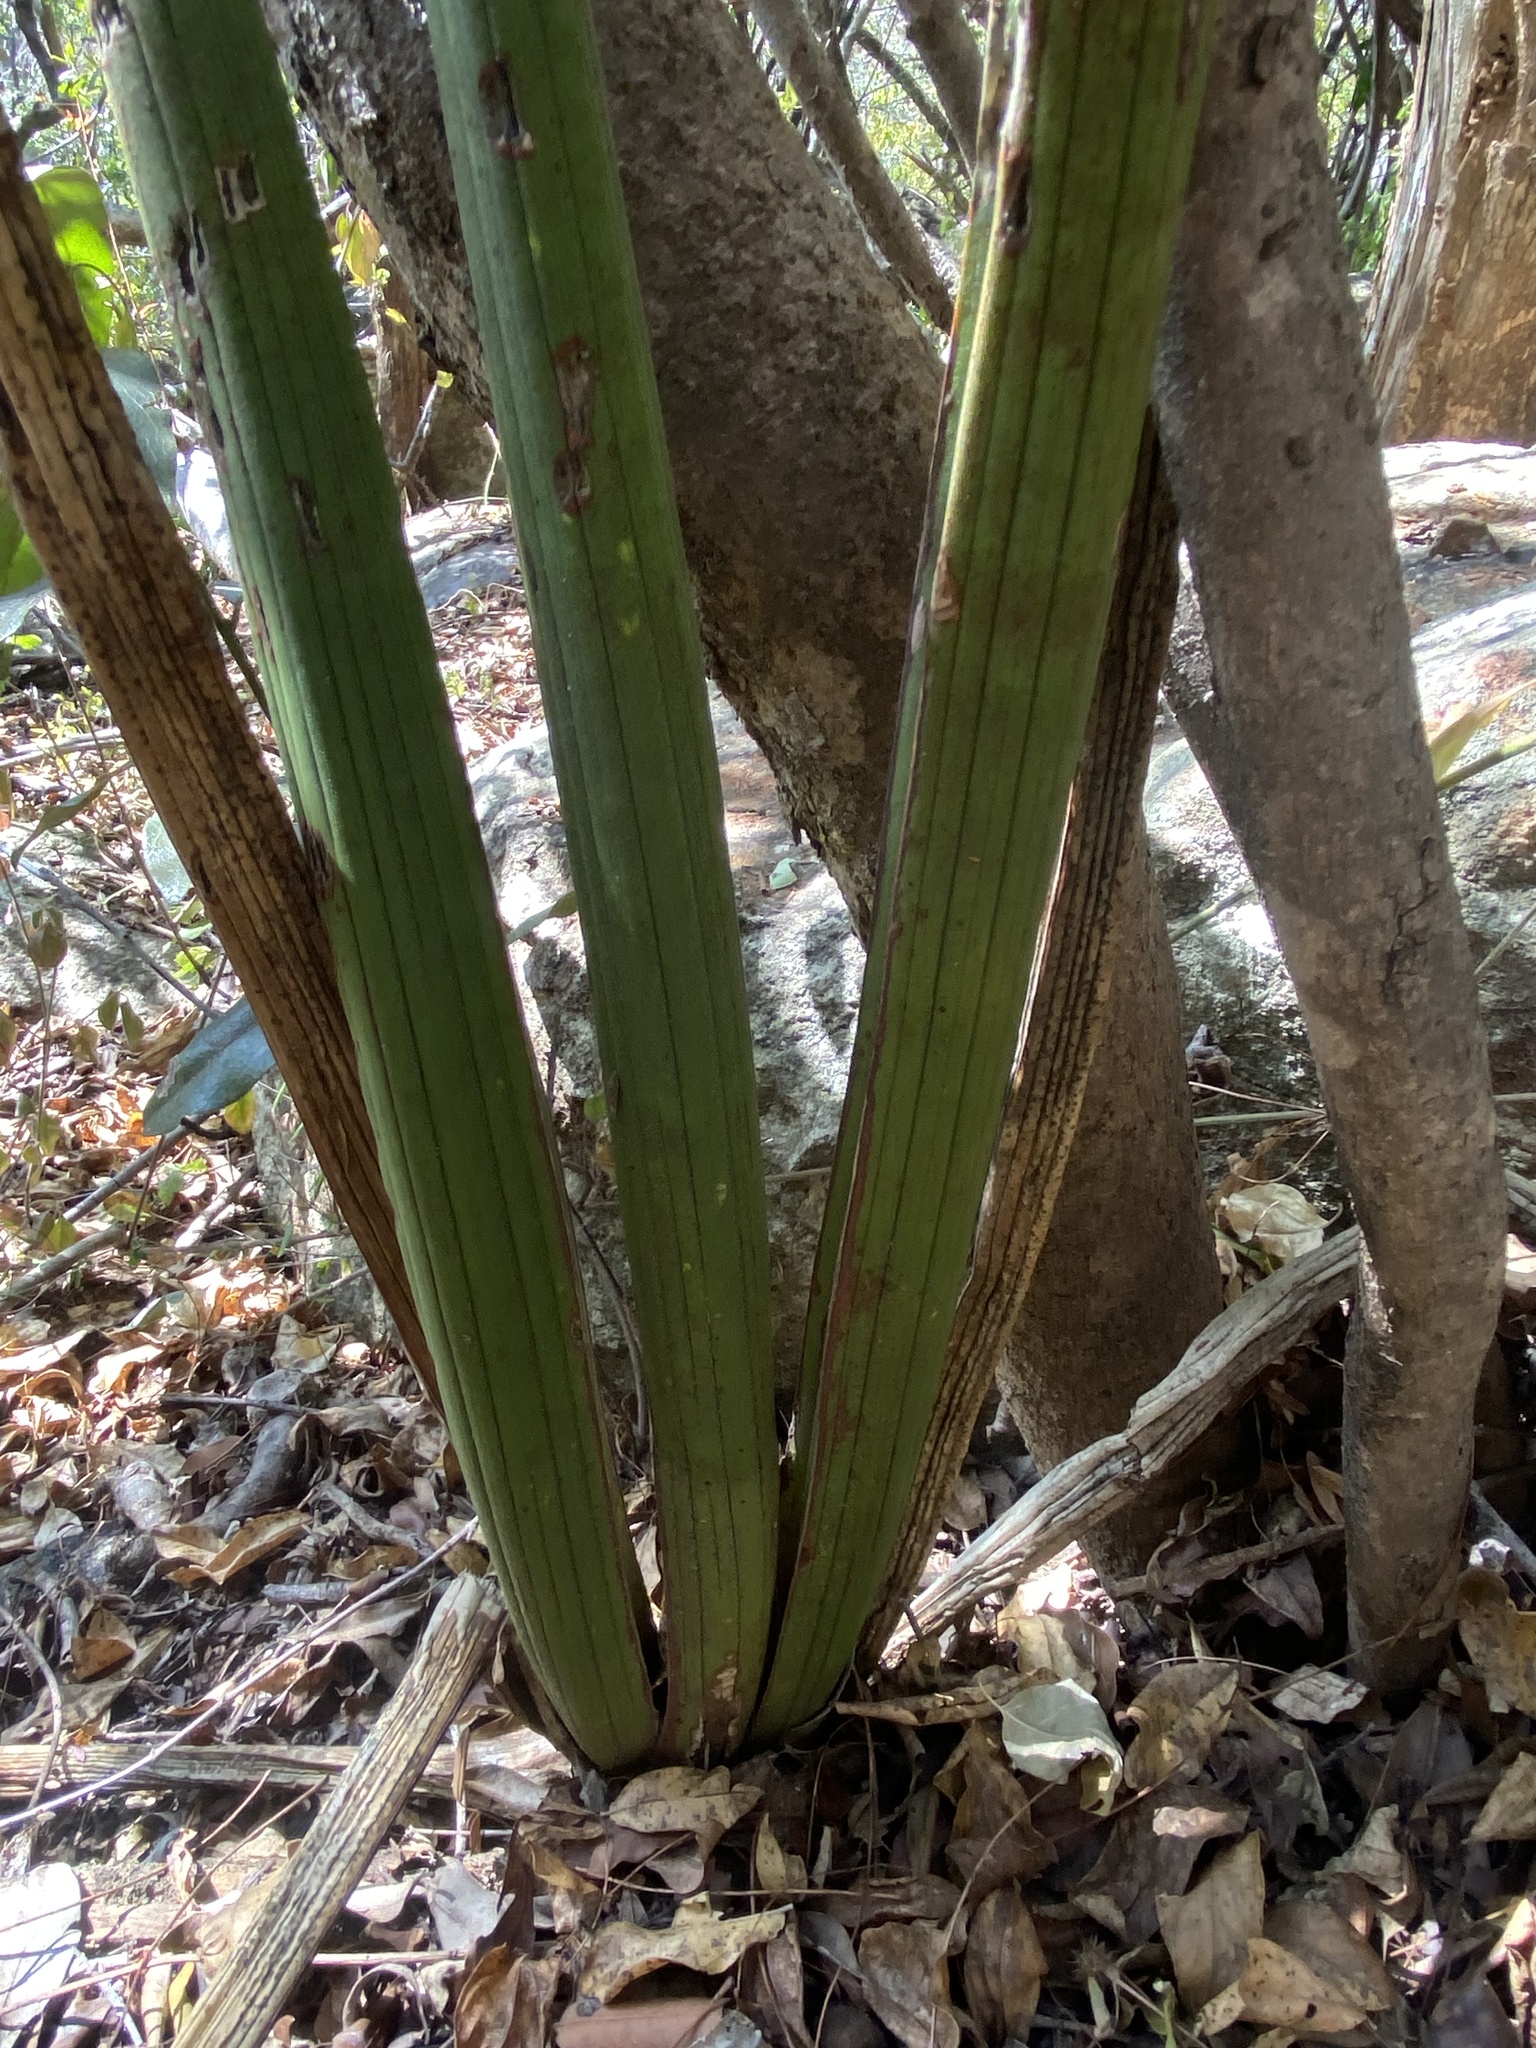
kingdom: Plantae
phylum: Tracheophyta
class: Liliopsida
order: Asparagales
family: Asparagaceae
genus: Dracaena
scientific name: Dracaena pearsonii
